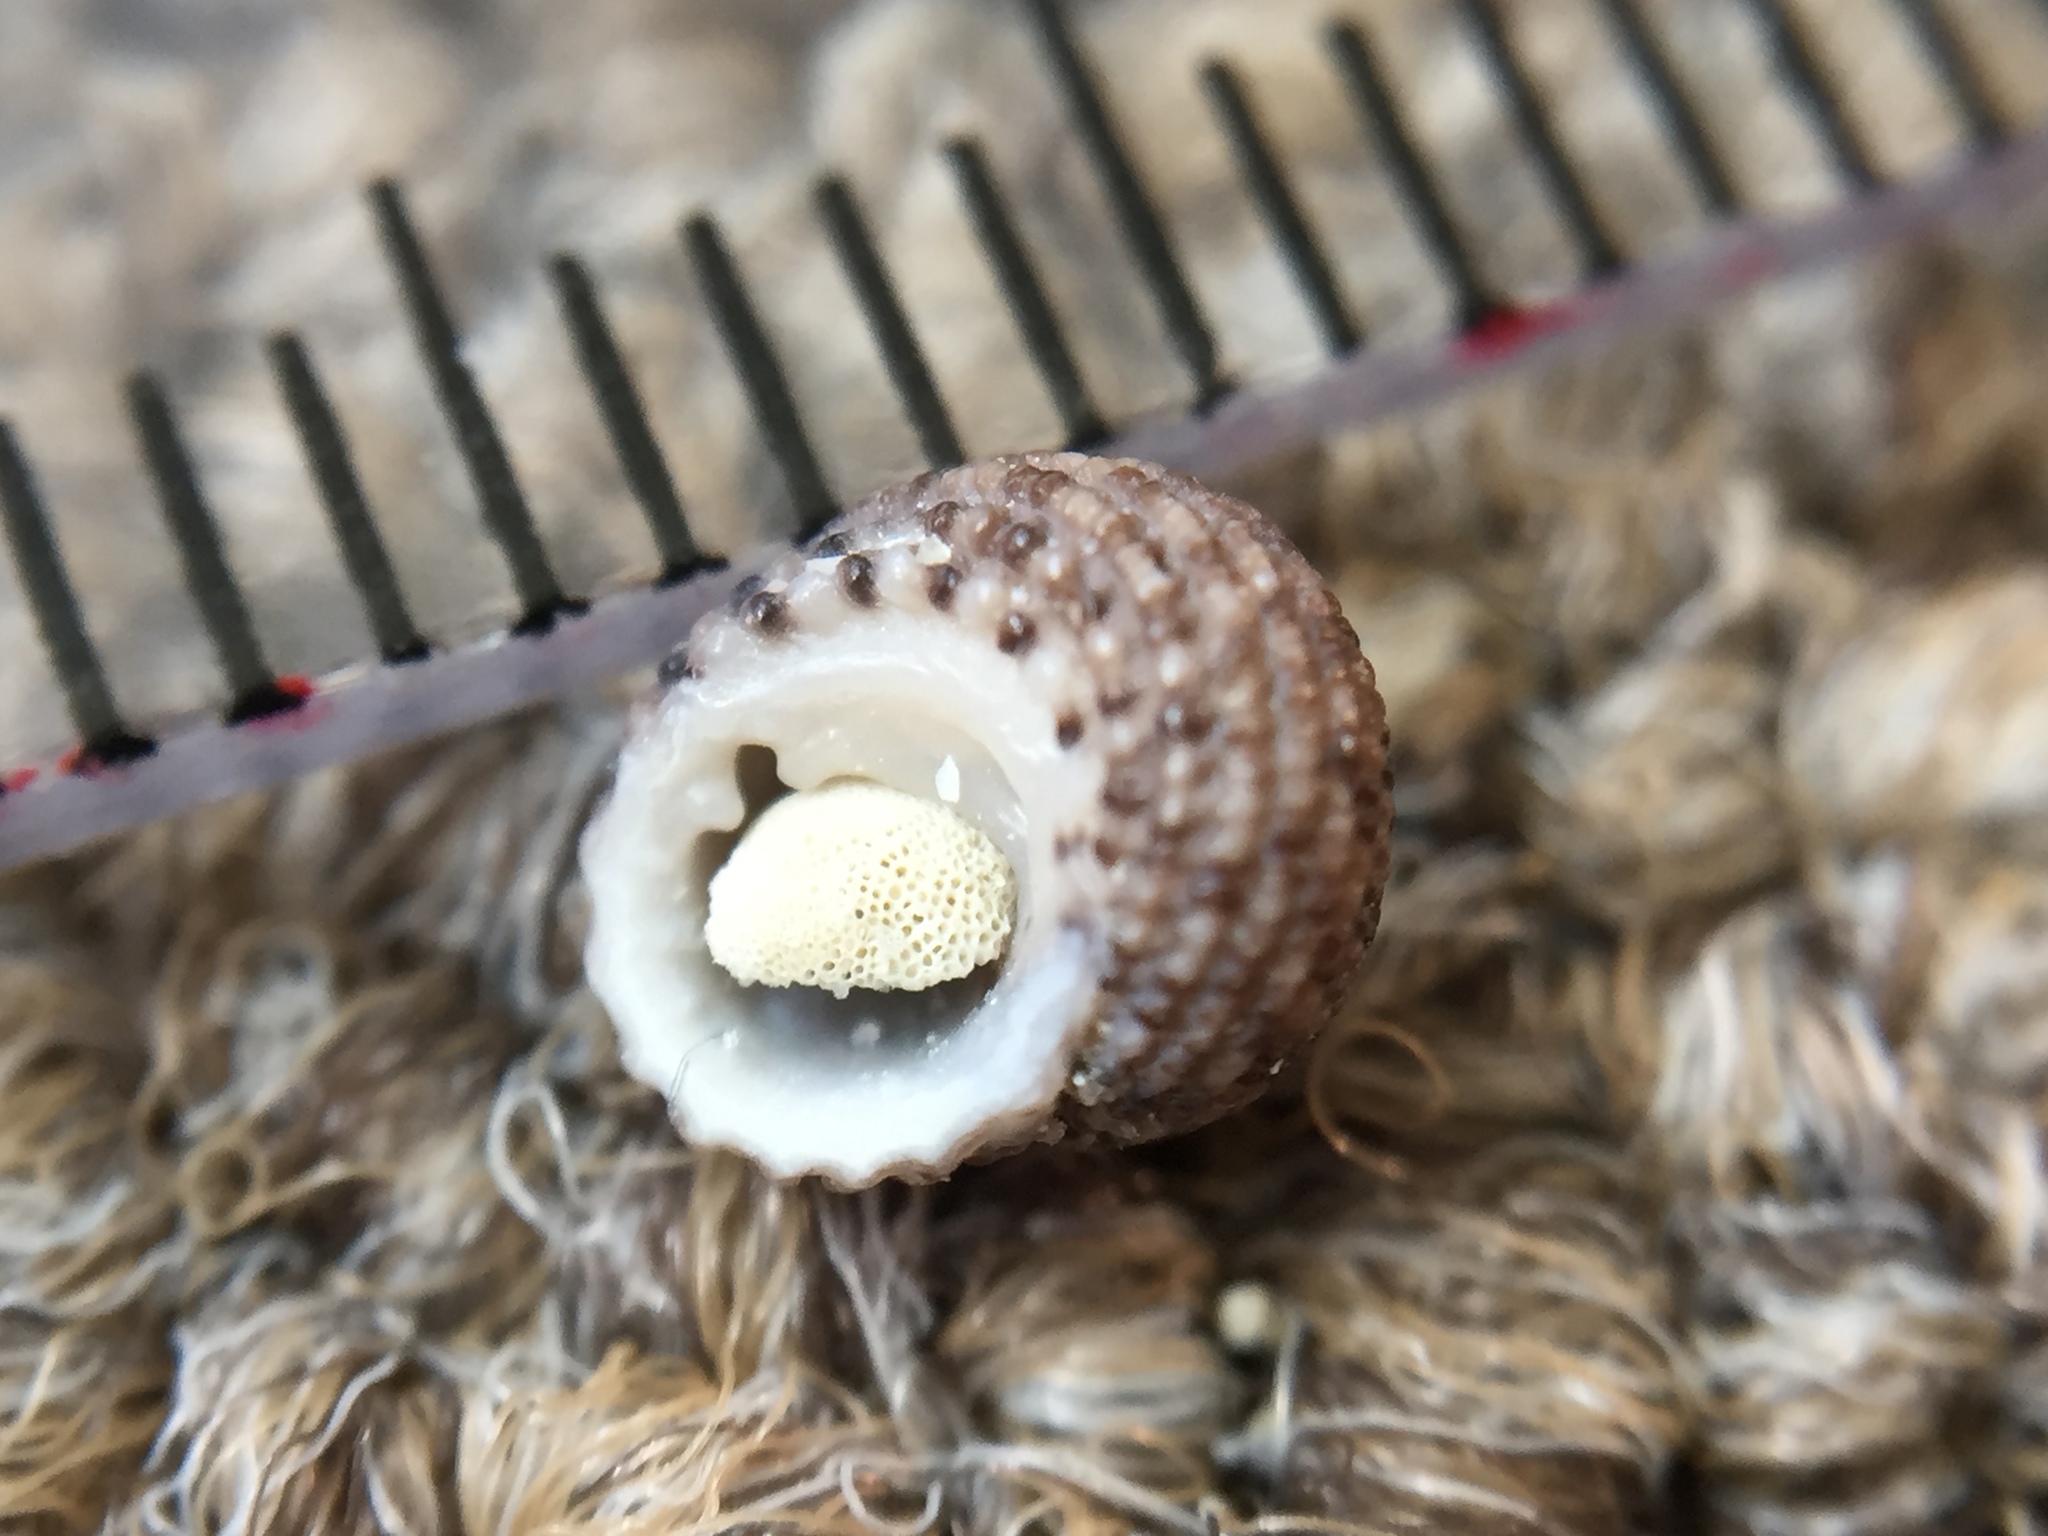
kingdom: Animalia
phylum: Mollusca
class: Gastropoda
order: Seguenziida
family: Chilodontaidae
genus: Herpetopoma
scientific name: Herpetopoma bellum
